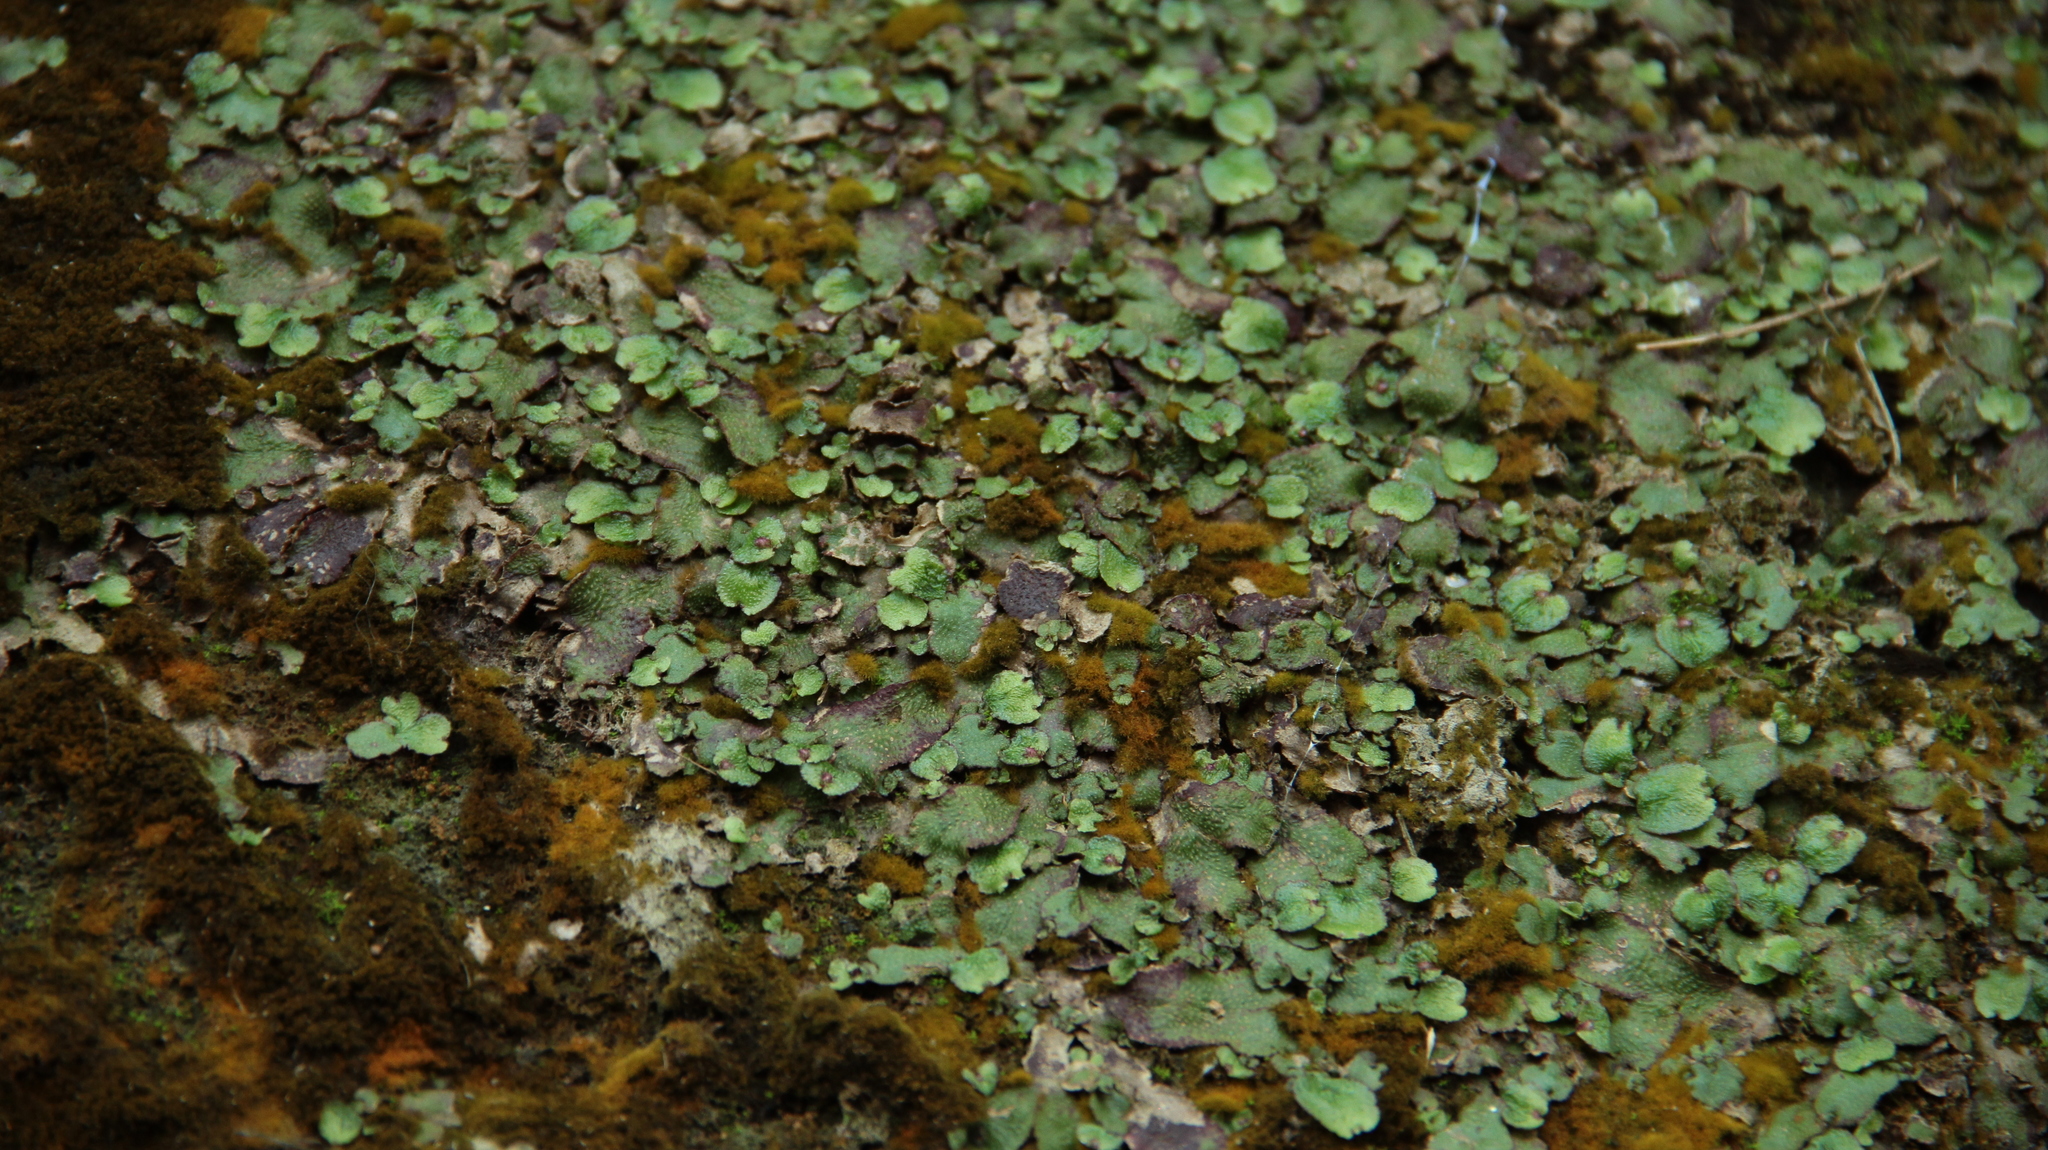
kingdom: Plantae
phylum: Marchantiophyta
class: Marchantiopsida
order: Marchantiales
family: Aytoniaceae
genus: Reboulia
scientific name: Reboulia hemisphaerica
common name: Purple-margined liverwort
